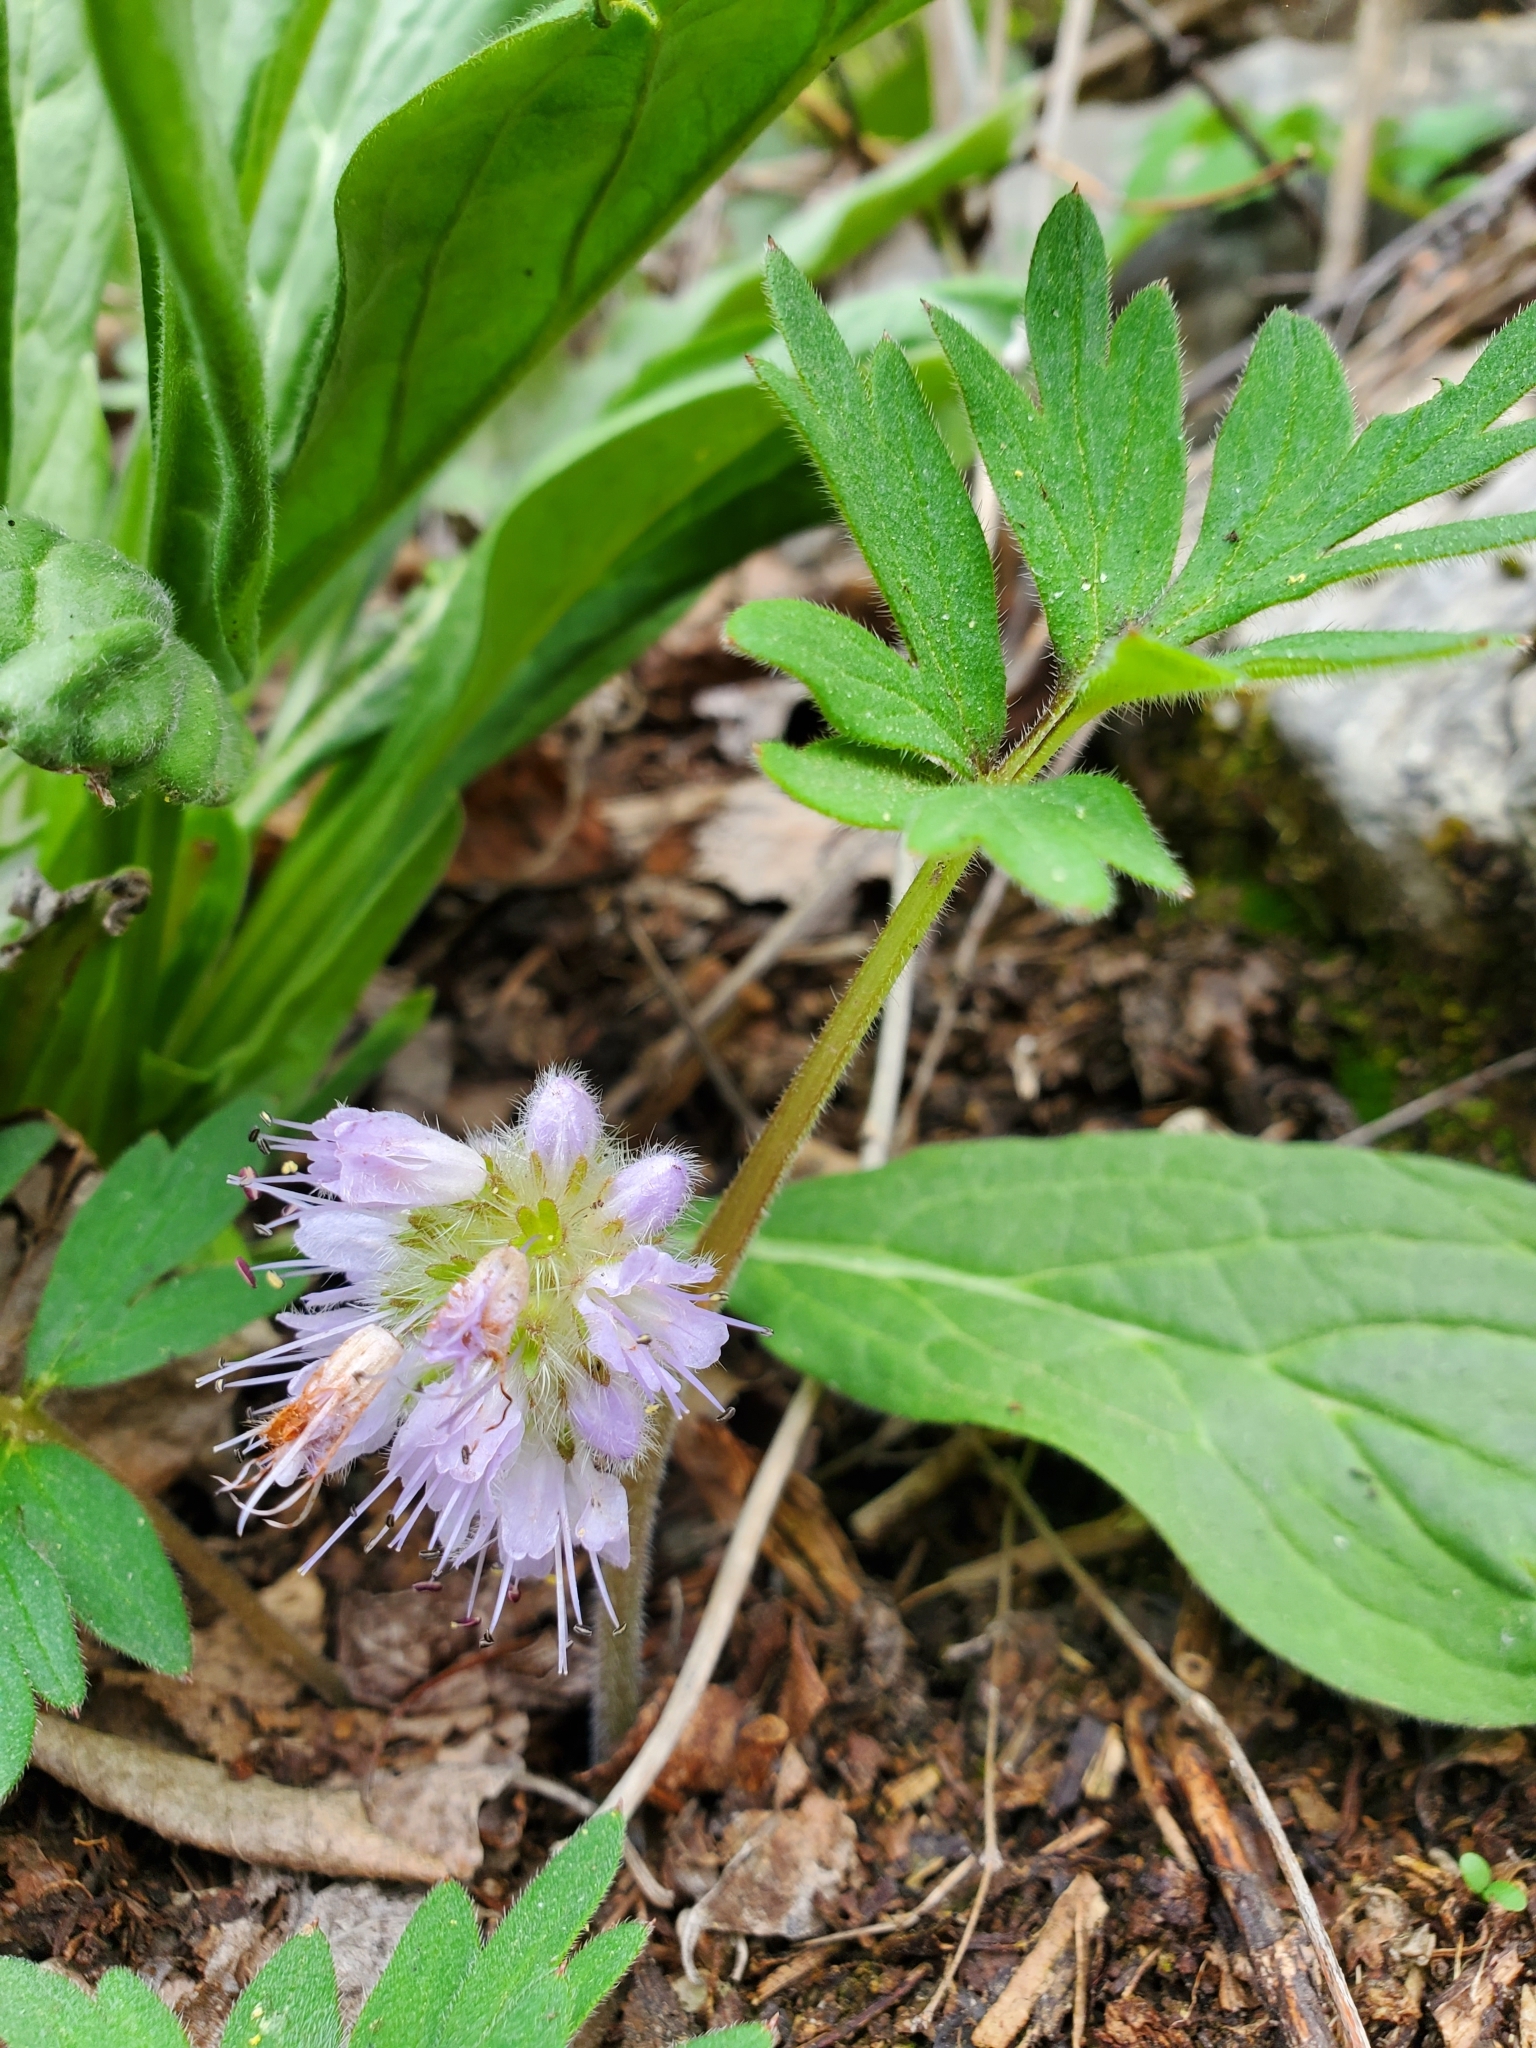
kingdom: Plantae
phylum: Tracheophyta
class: Magnoliopsida
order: Boraginales
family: Hydrophyllaceae
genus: Hydrophyllum
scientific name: Hydrophyllum capitatum
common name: Woollen-breeches
